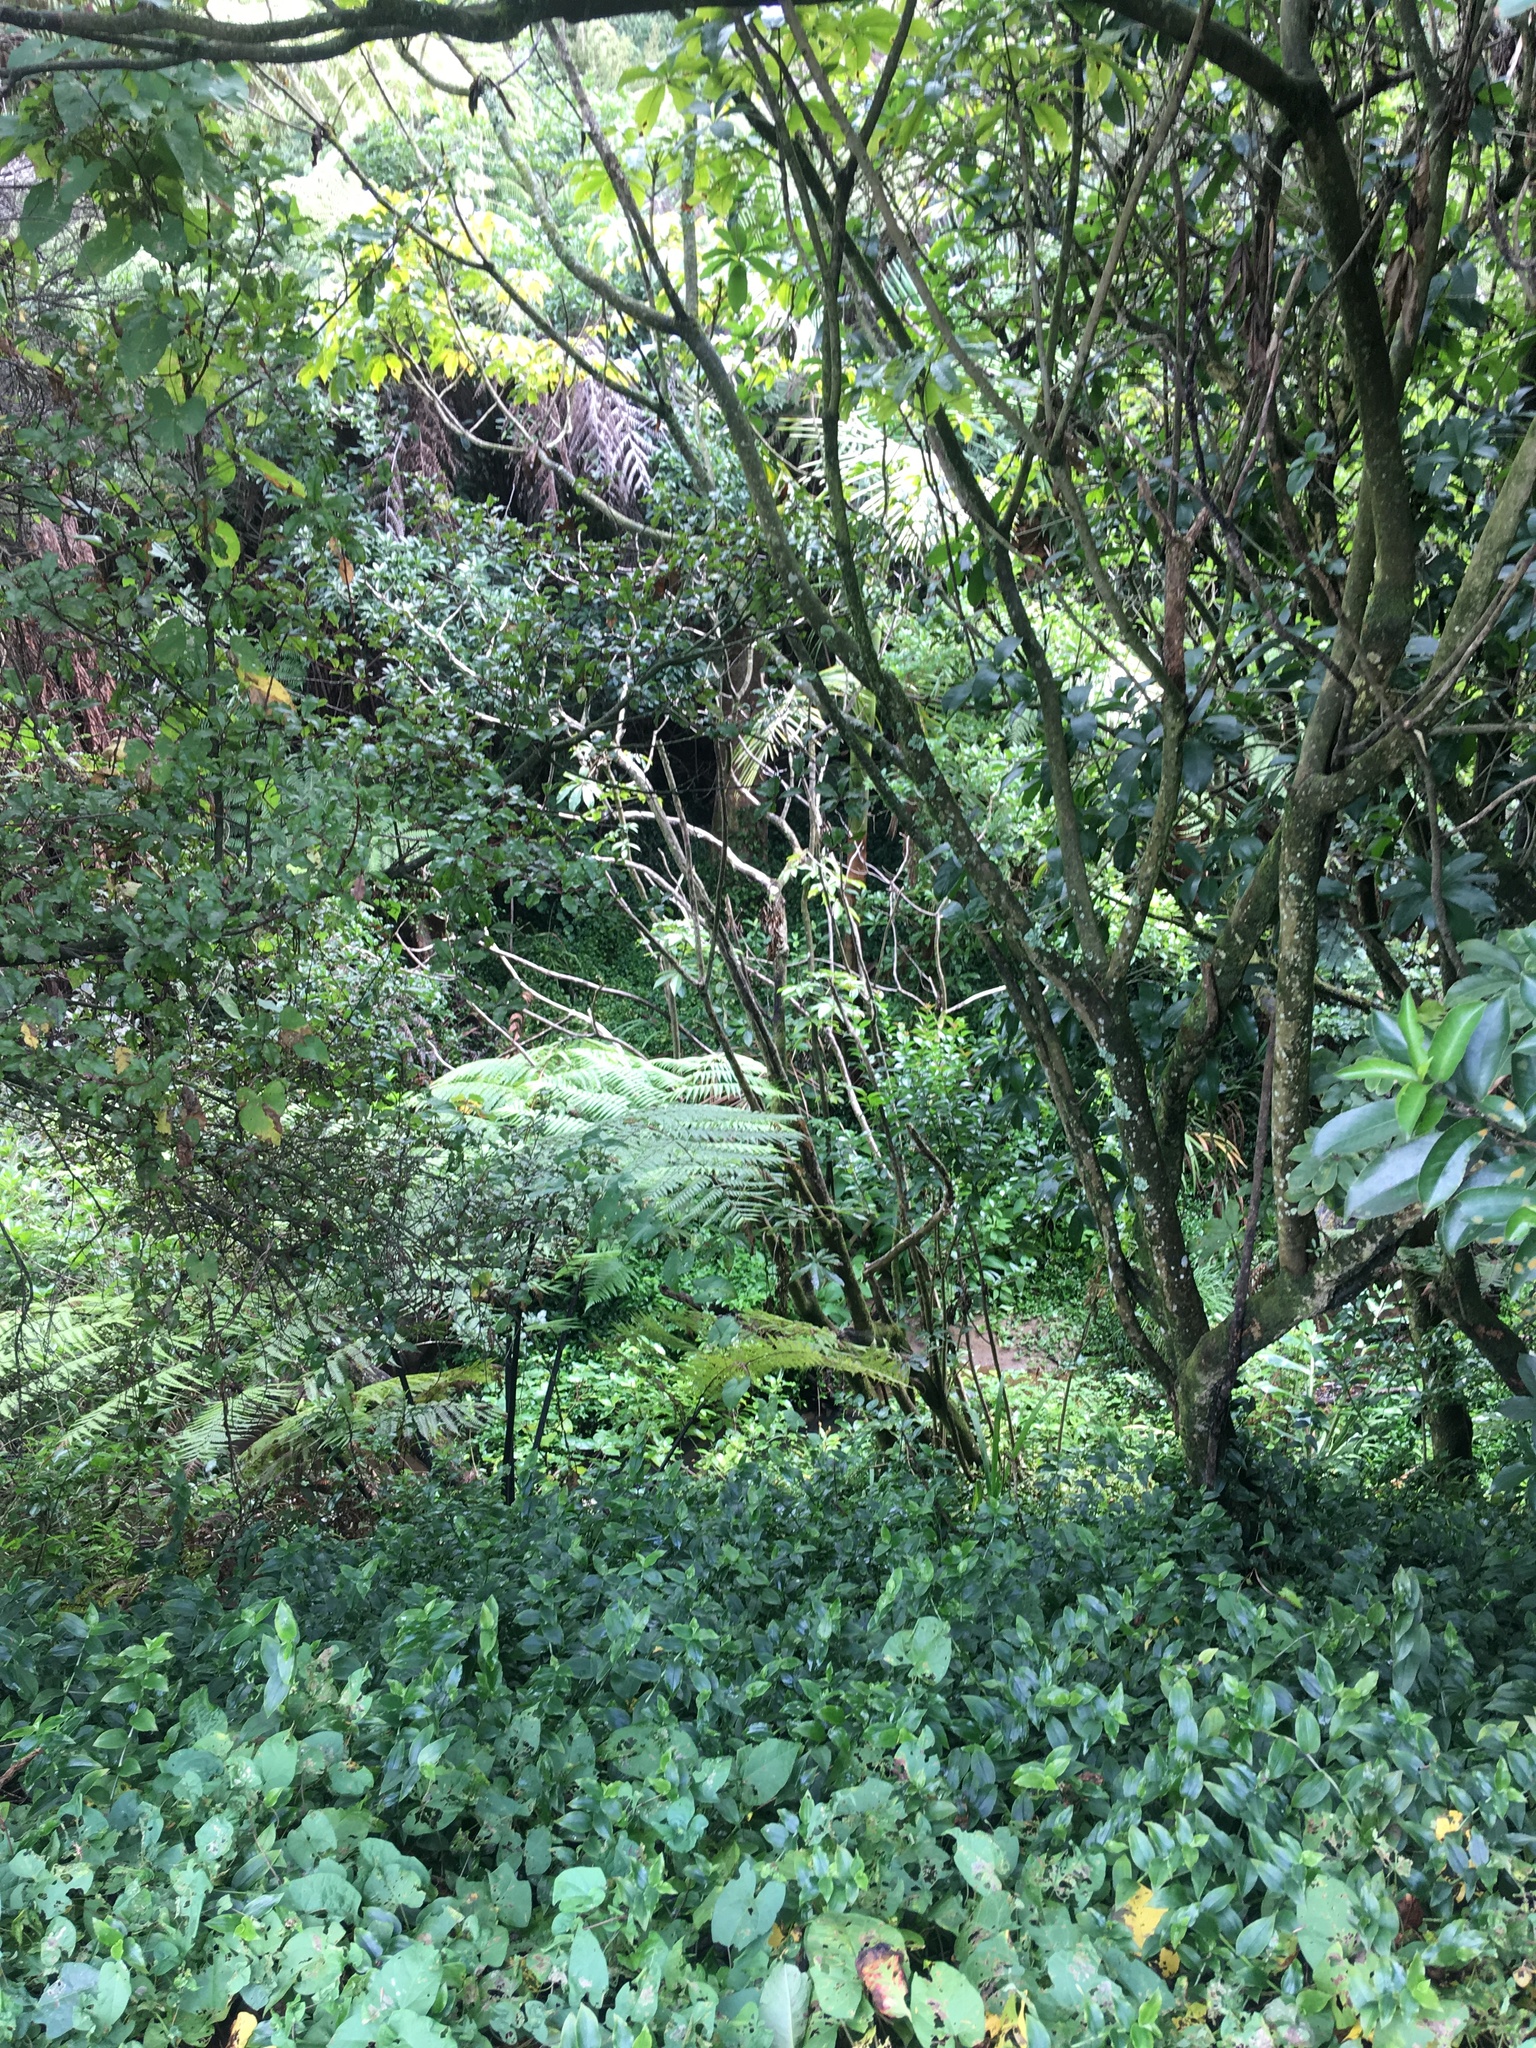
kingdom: Plantae
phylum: Tracheophyta
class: Magnoliopsida
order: Malpighiales
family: Violaceae
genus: Melicytus
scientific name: Melicytus ramiflorus
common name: Mahoe
